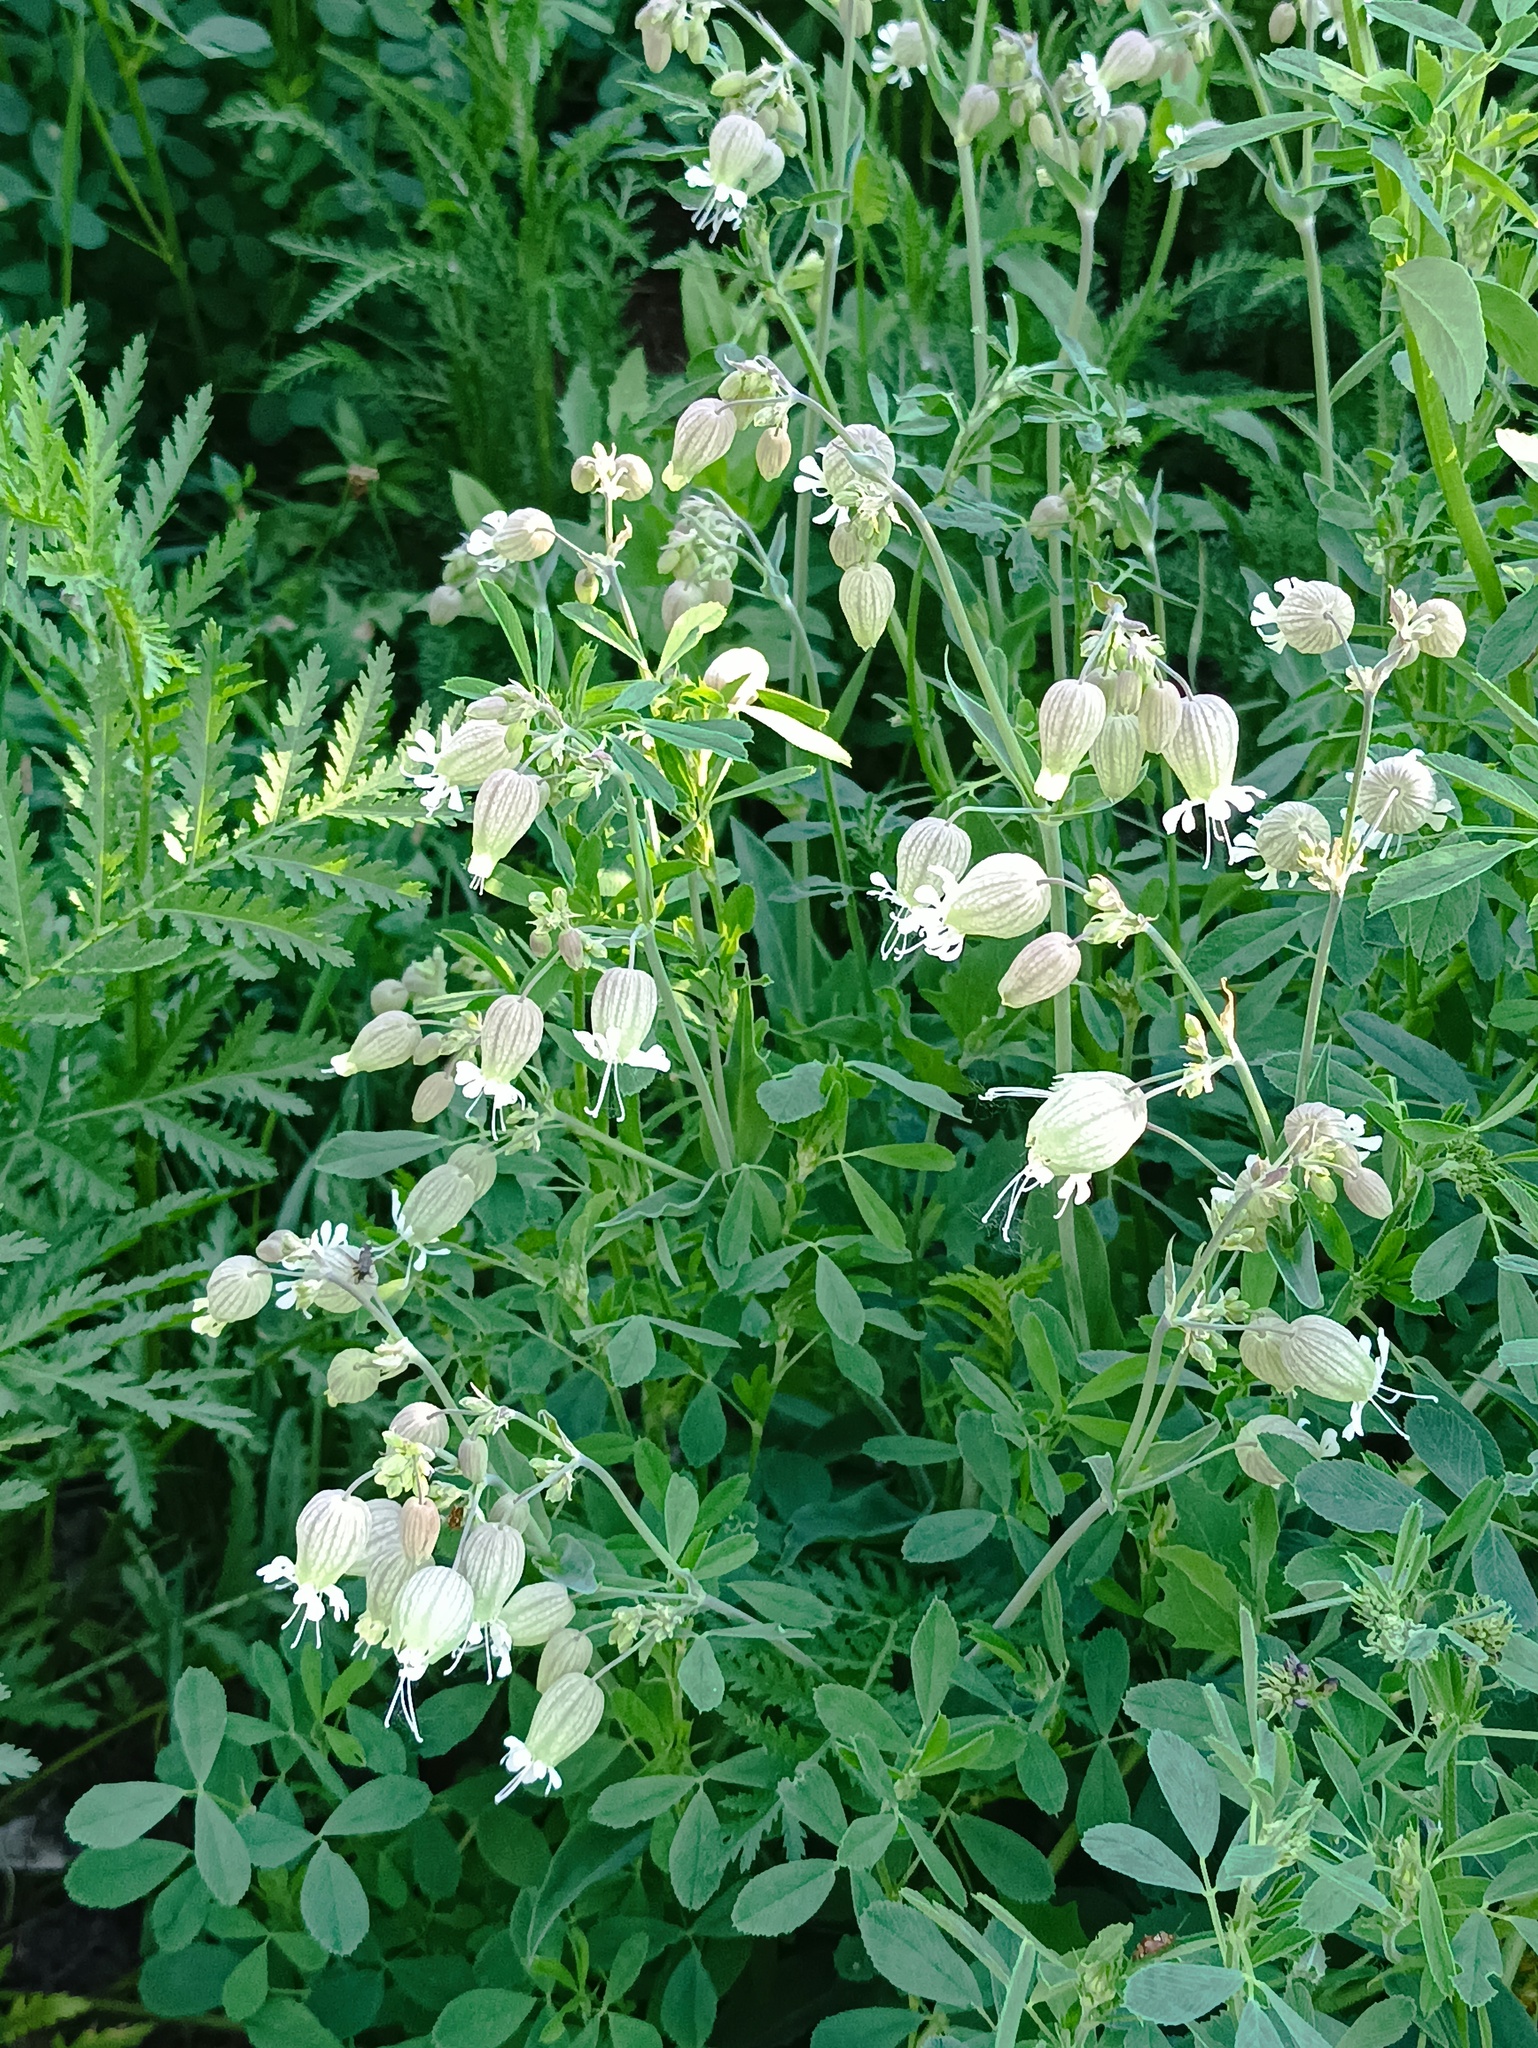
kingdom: Plantae
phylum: Tracheophyta
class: Magnoliopsida
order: Caryophyllales
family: Caryophyllaceae
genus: Silene
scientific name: Silene vulgaris
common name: Bladder campion
